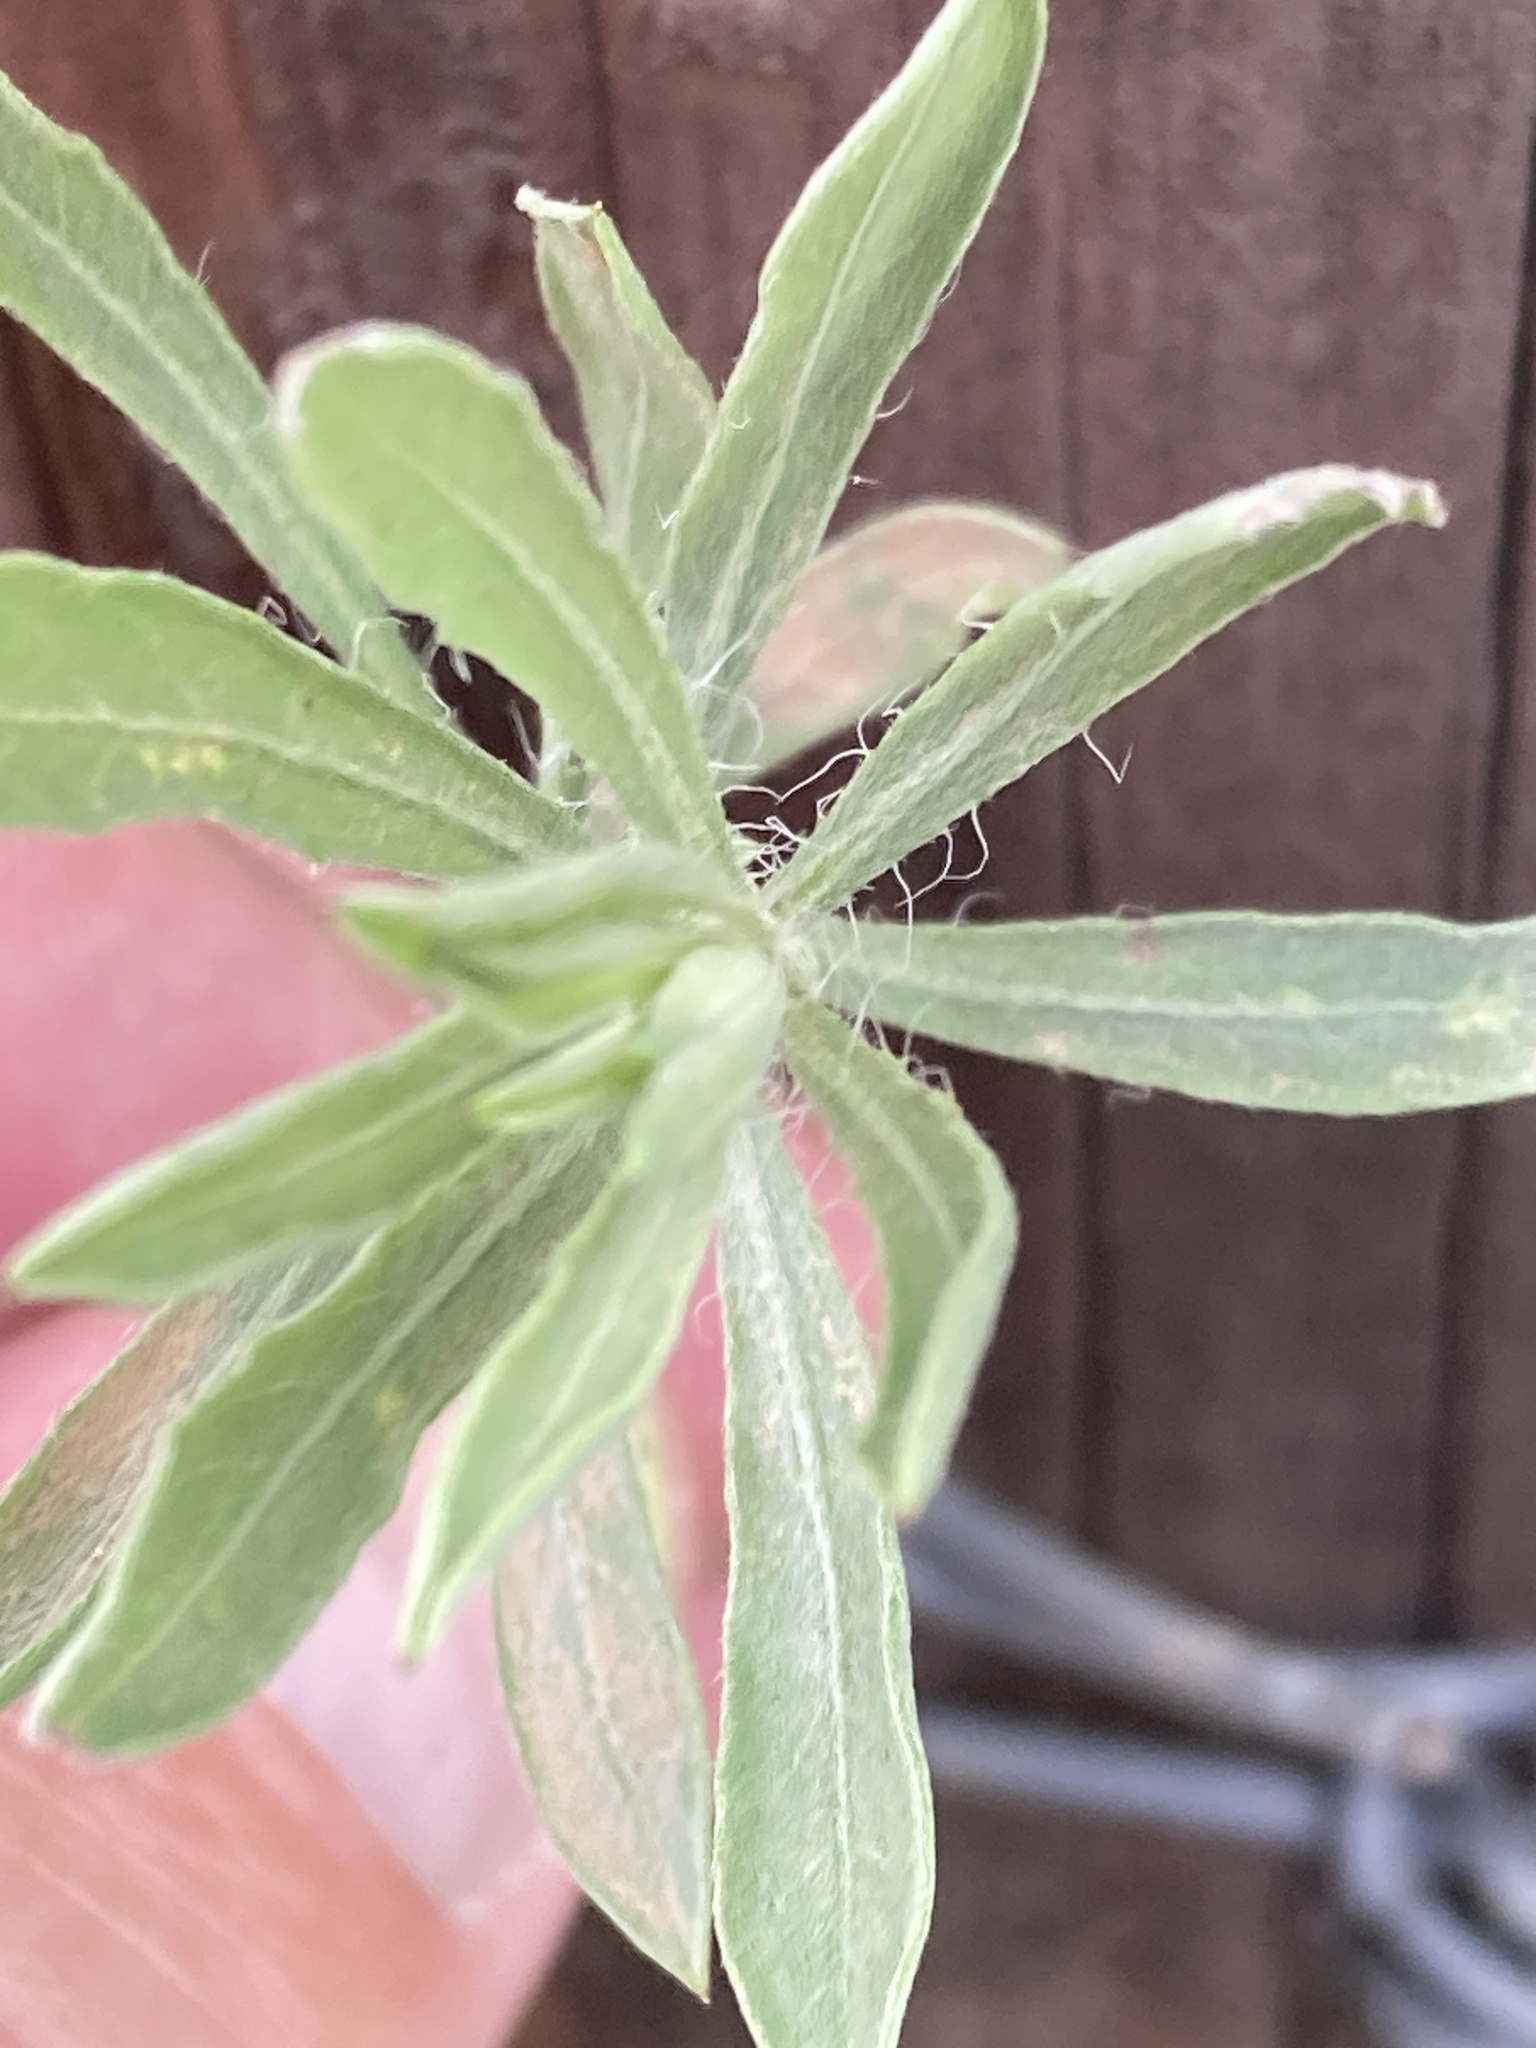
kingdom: Plantae
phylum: Tracheophyta
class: Magnoliopsida
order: Asterales
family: Asteraceae
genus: Heterotheca
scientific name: Heterotheca canescens
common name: Hoary golden-aster
